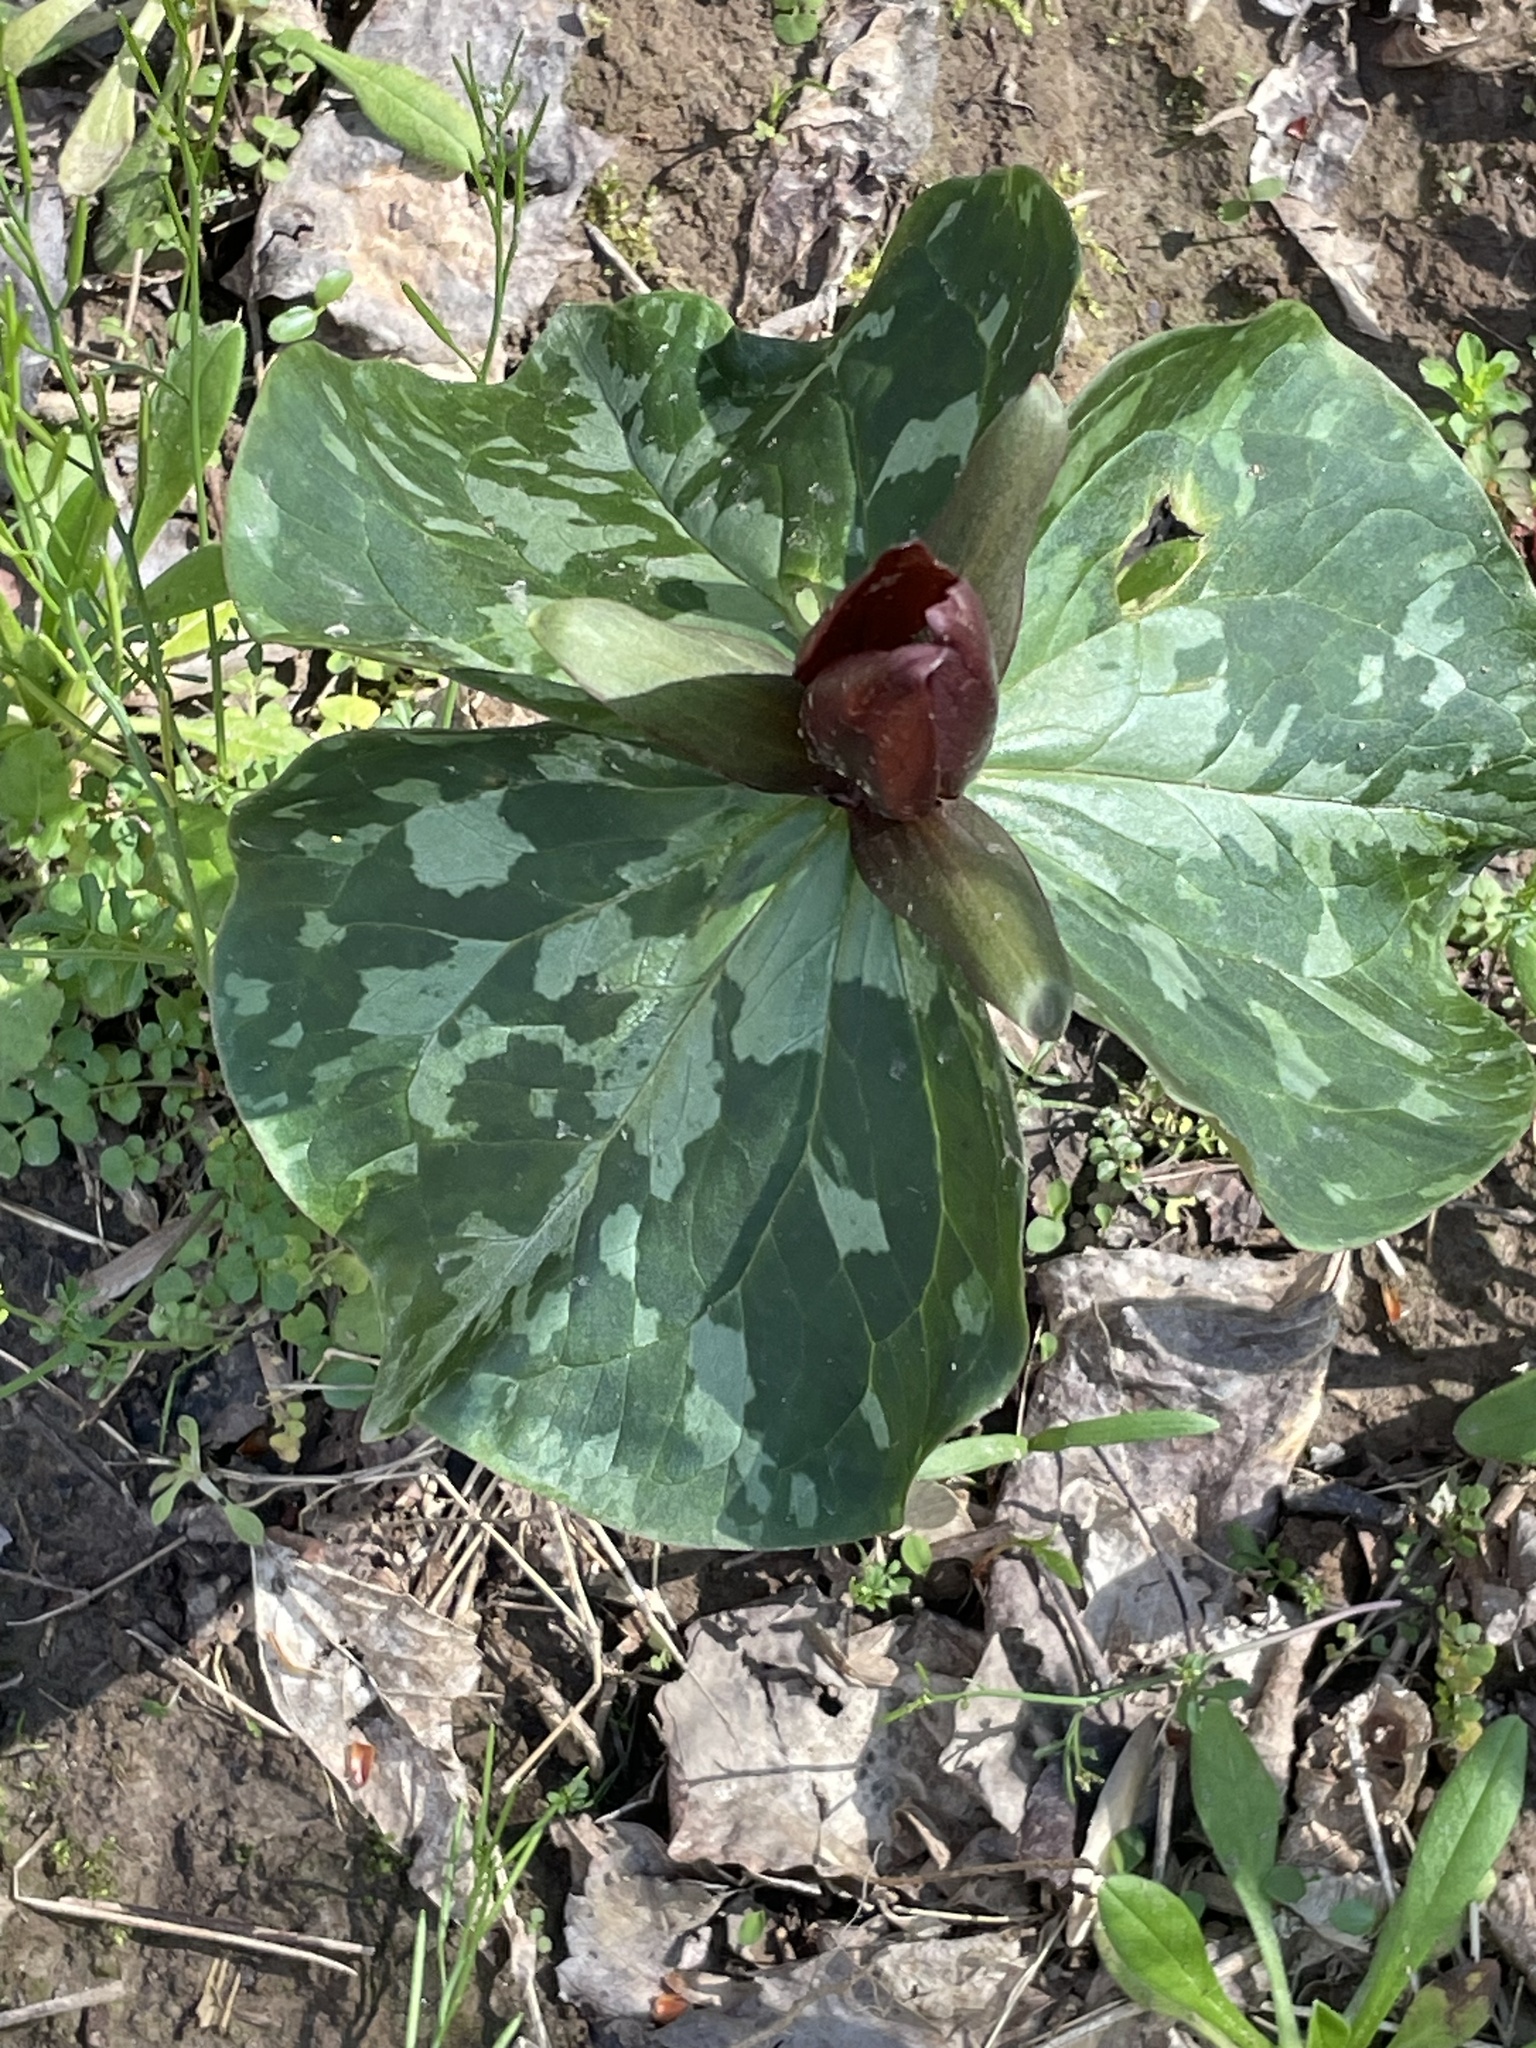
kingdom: Plantae
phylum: Tracheophyta
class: Liliopsida
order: Liliales
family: Melanthiaceae
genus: Trillium
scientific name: Trillium cuneatum
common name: Cuneate trillium
